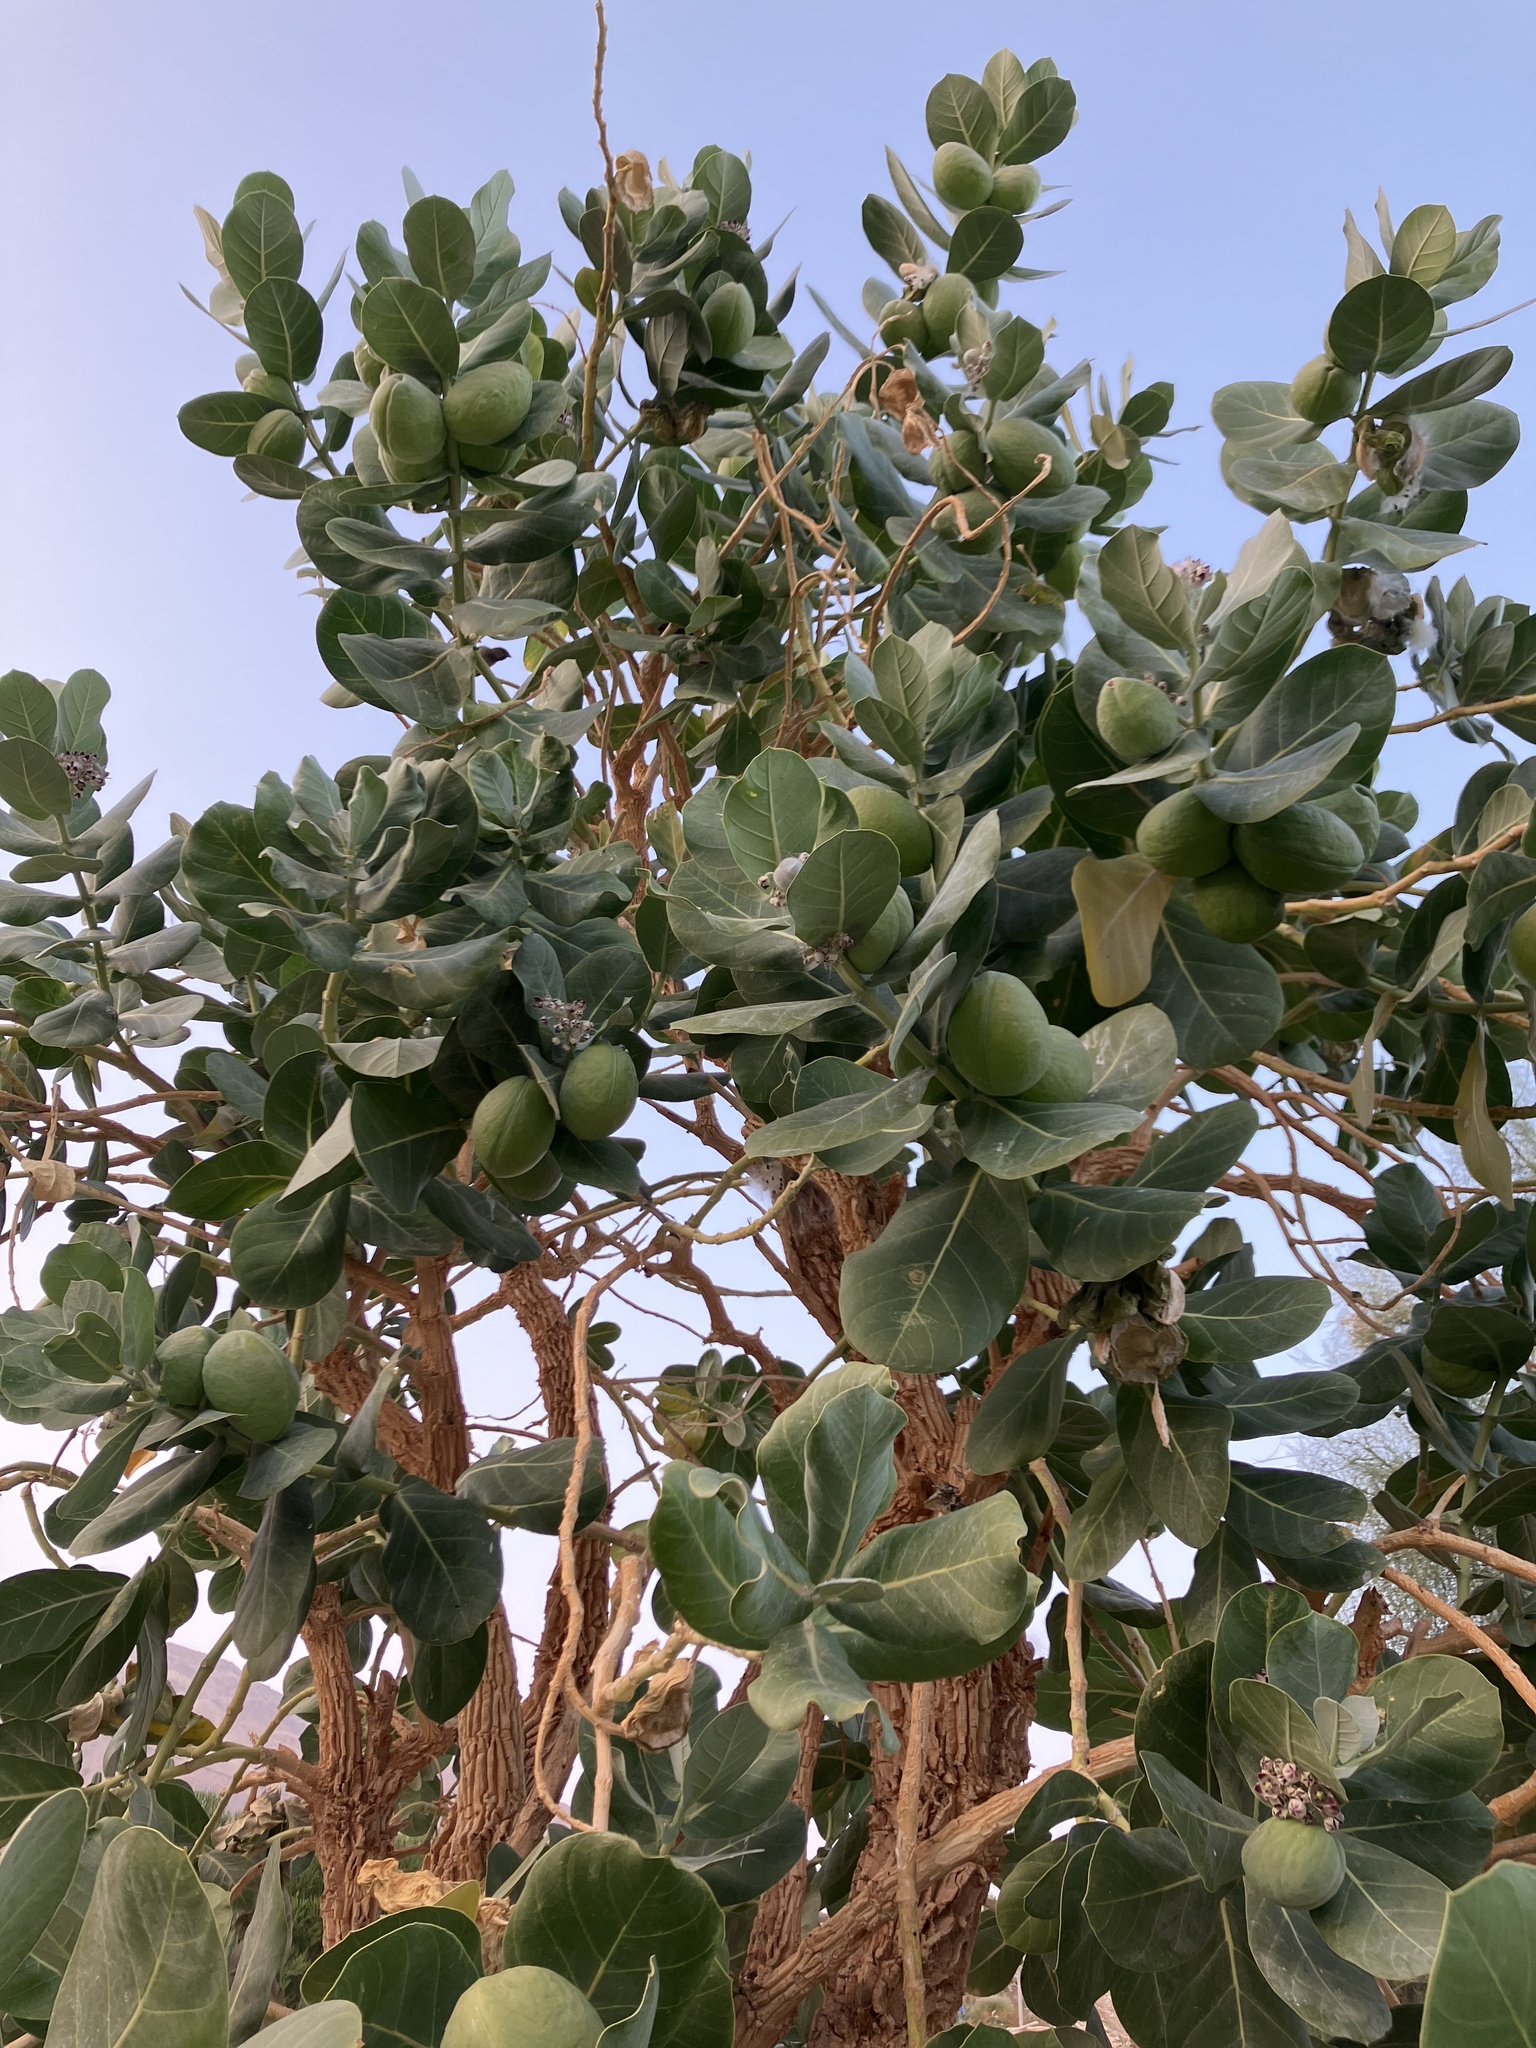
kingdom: Plantae
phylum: Tracheophyta
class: Magnoliopsida
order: Gentianales
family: Apocynaceae
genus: Calotropis
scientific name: Calotropis procera
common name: Roostertree
